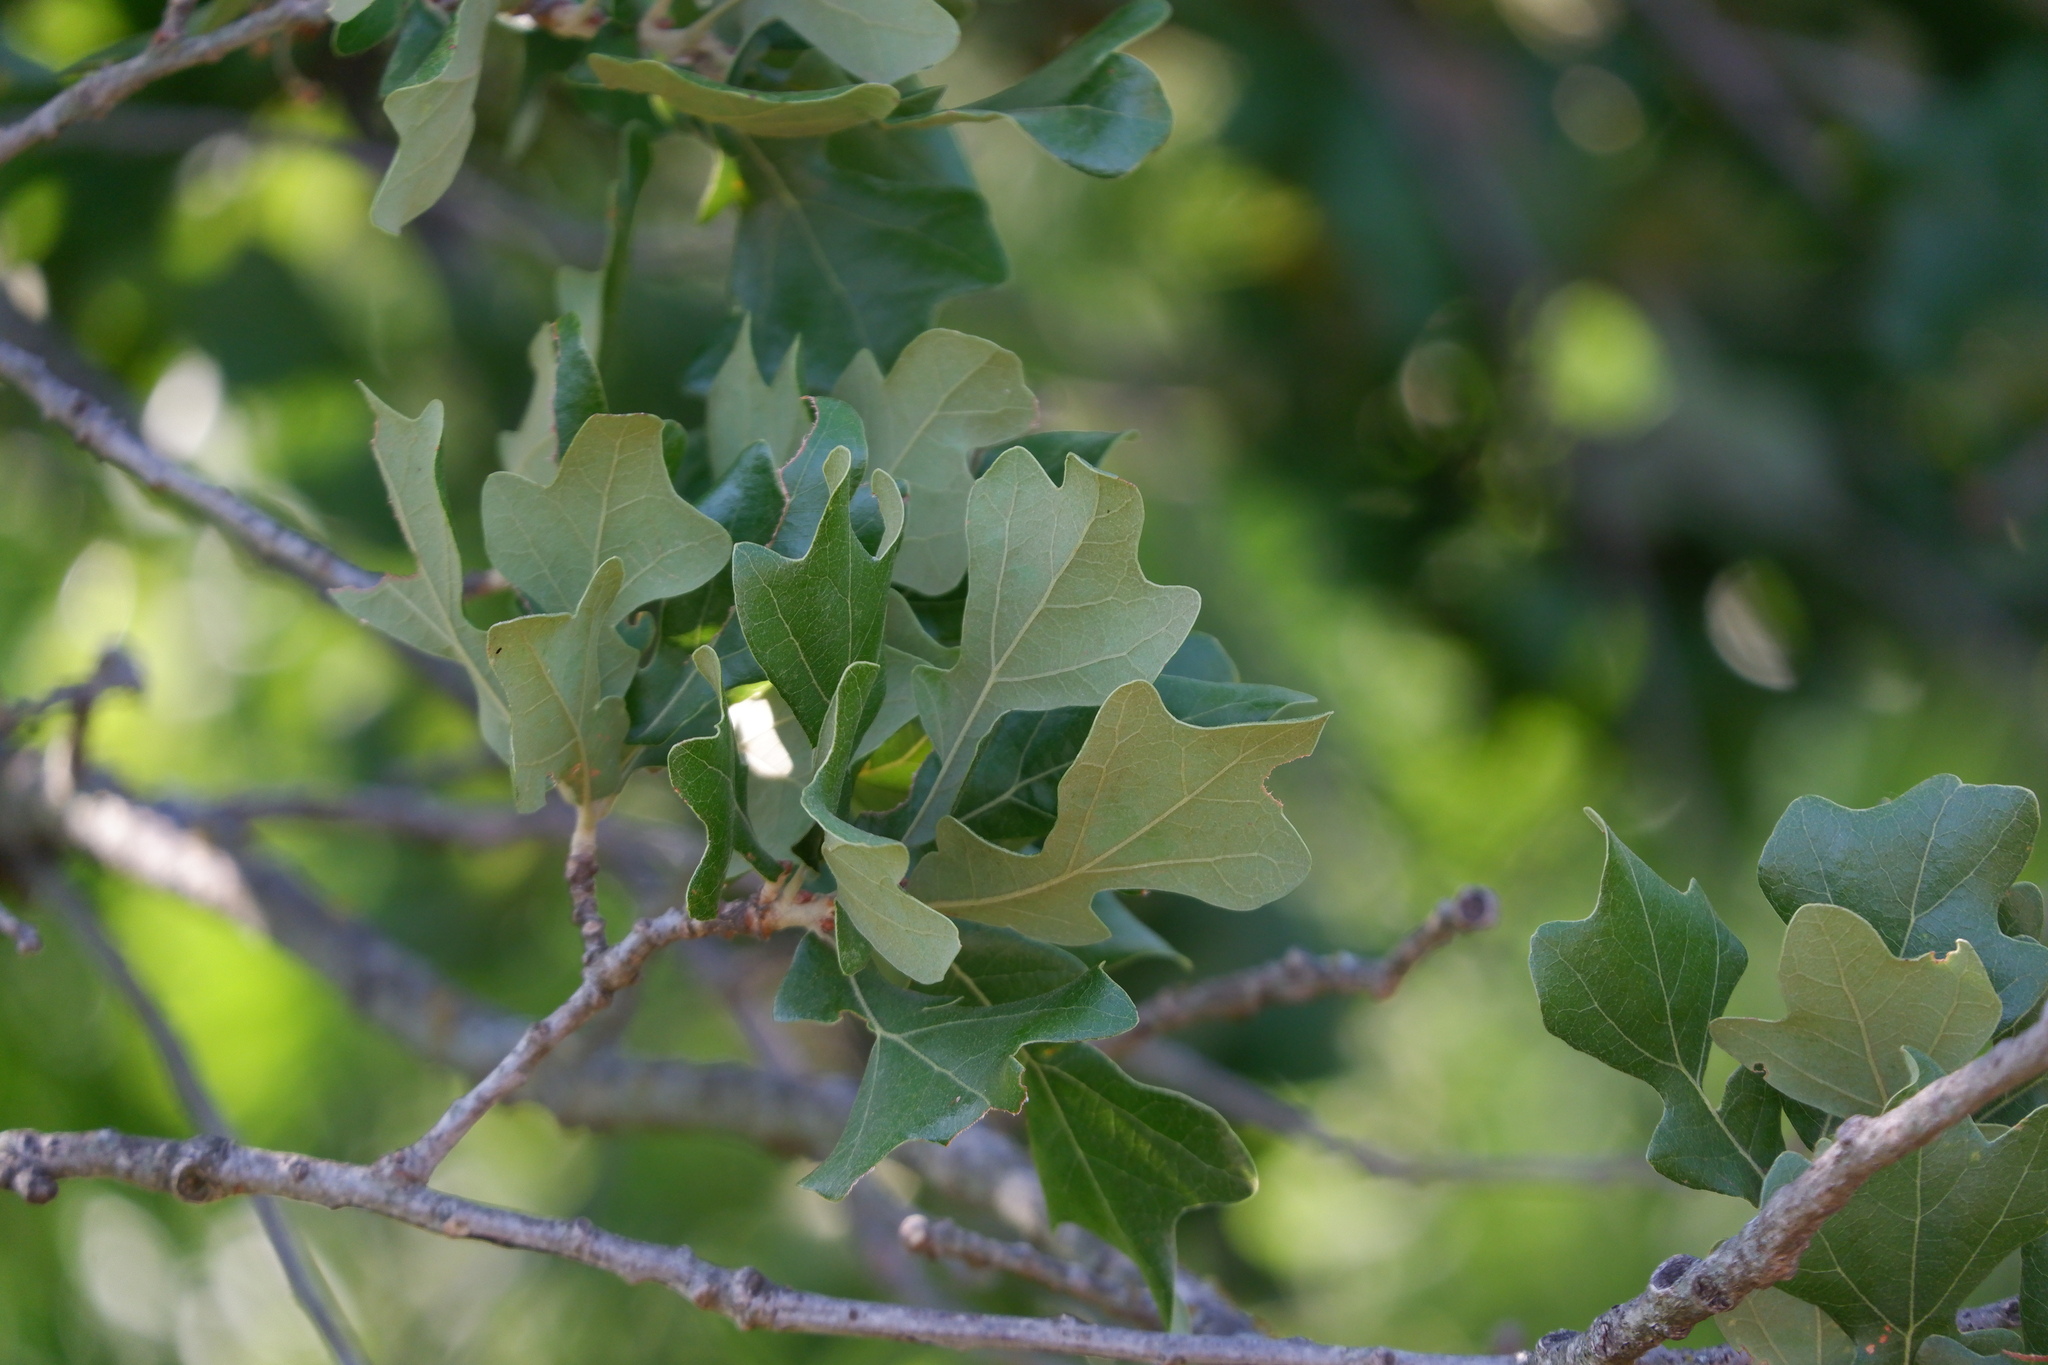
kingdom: Plantae
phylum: Tracheophyta
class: Magnoliopsida
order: Fagales
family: Fagaceae
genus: Quercus
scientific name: Quercus stellata
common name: Post oak
